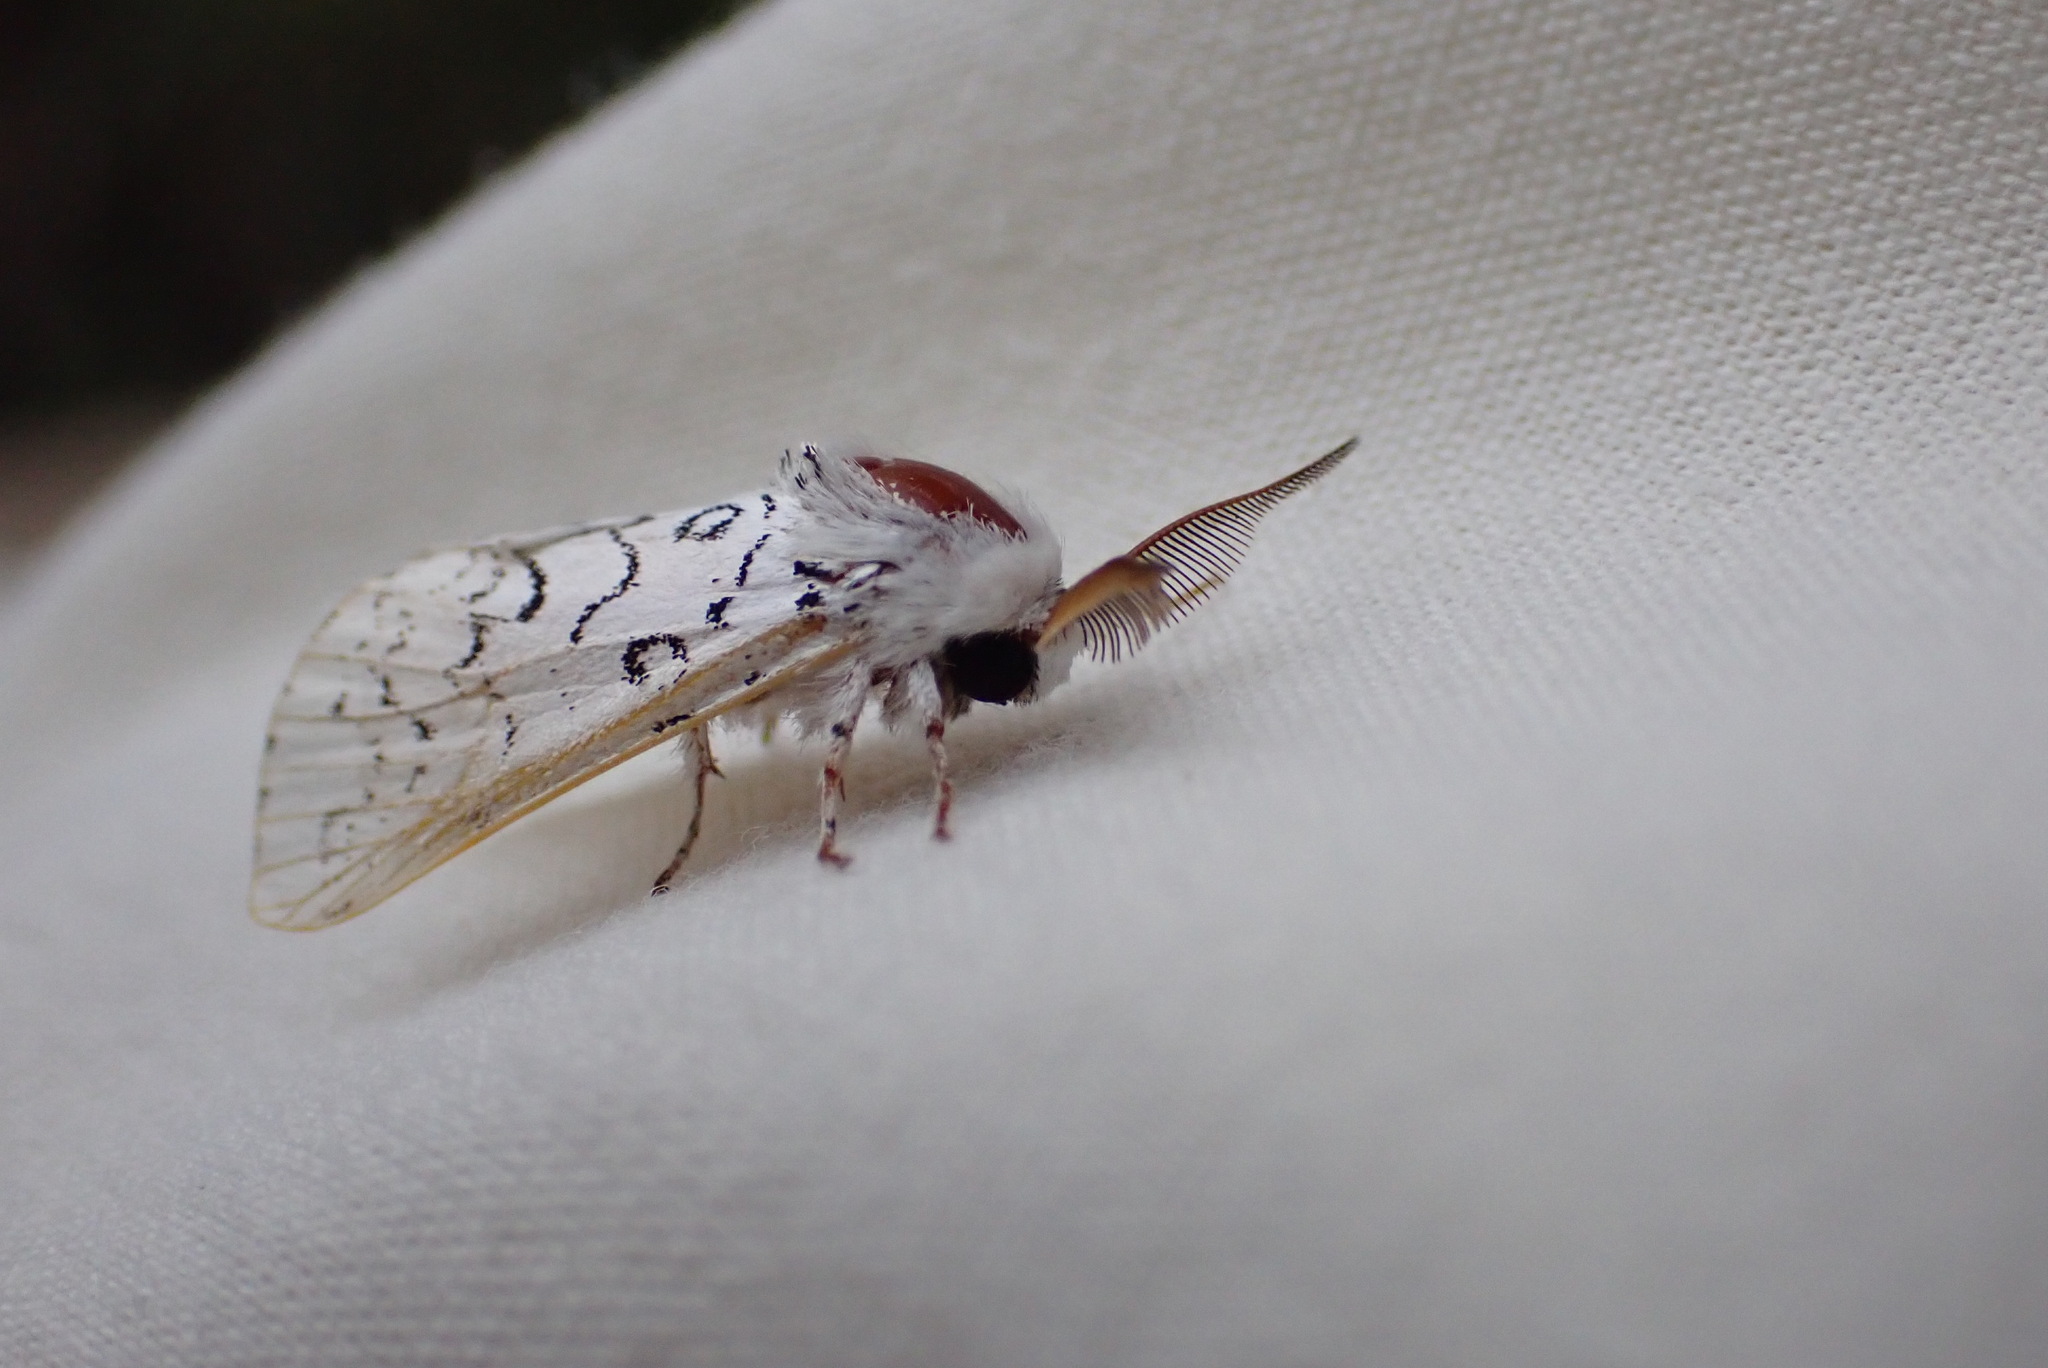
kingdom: Animalia
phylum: Arthropoda
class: Insecta
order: Lepidoptera
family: Notodontidae
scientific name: Notodontidae
